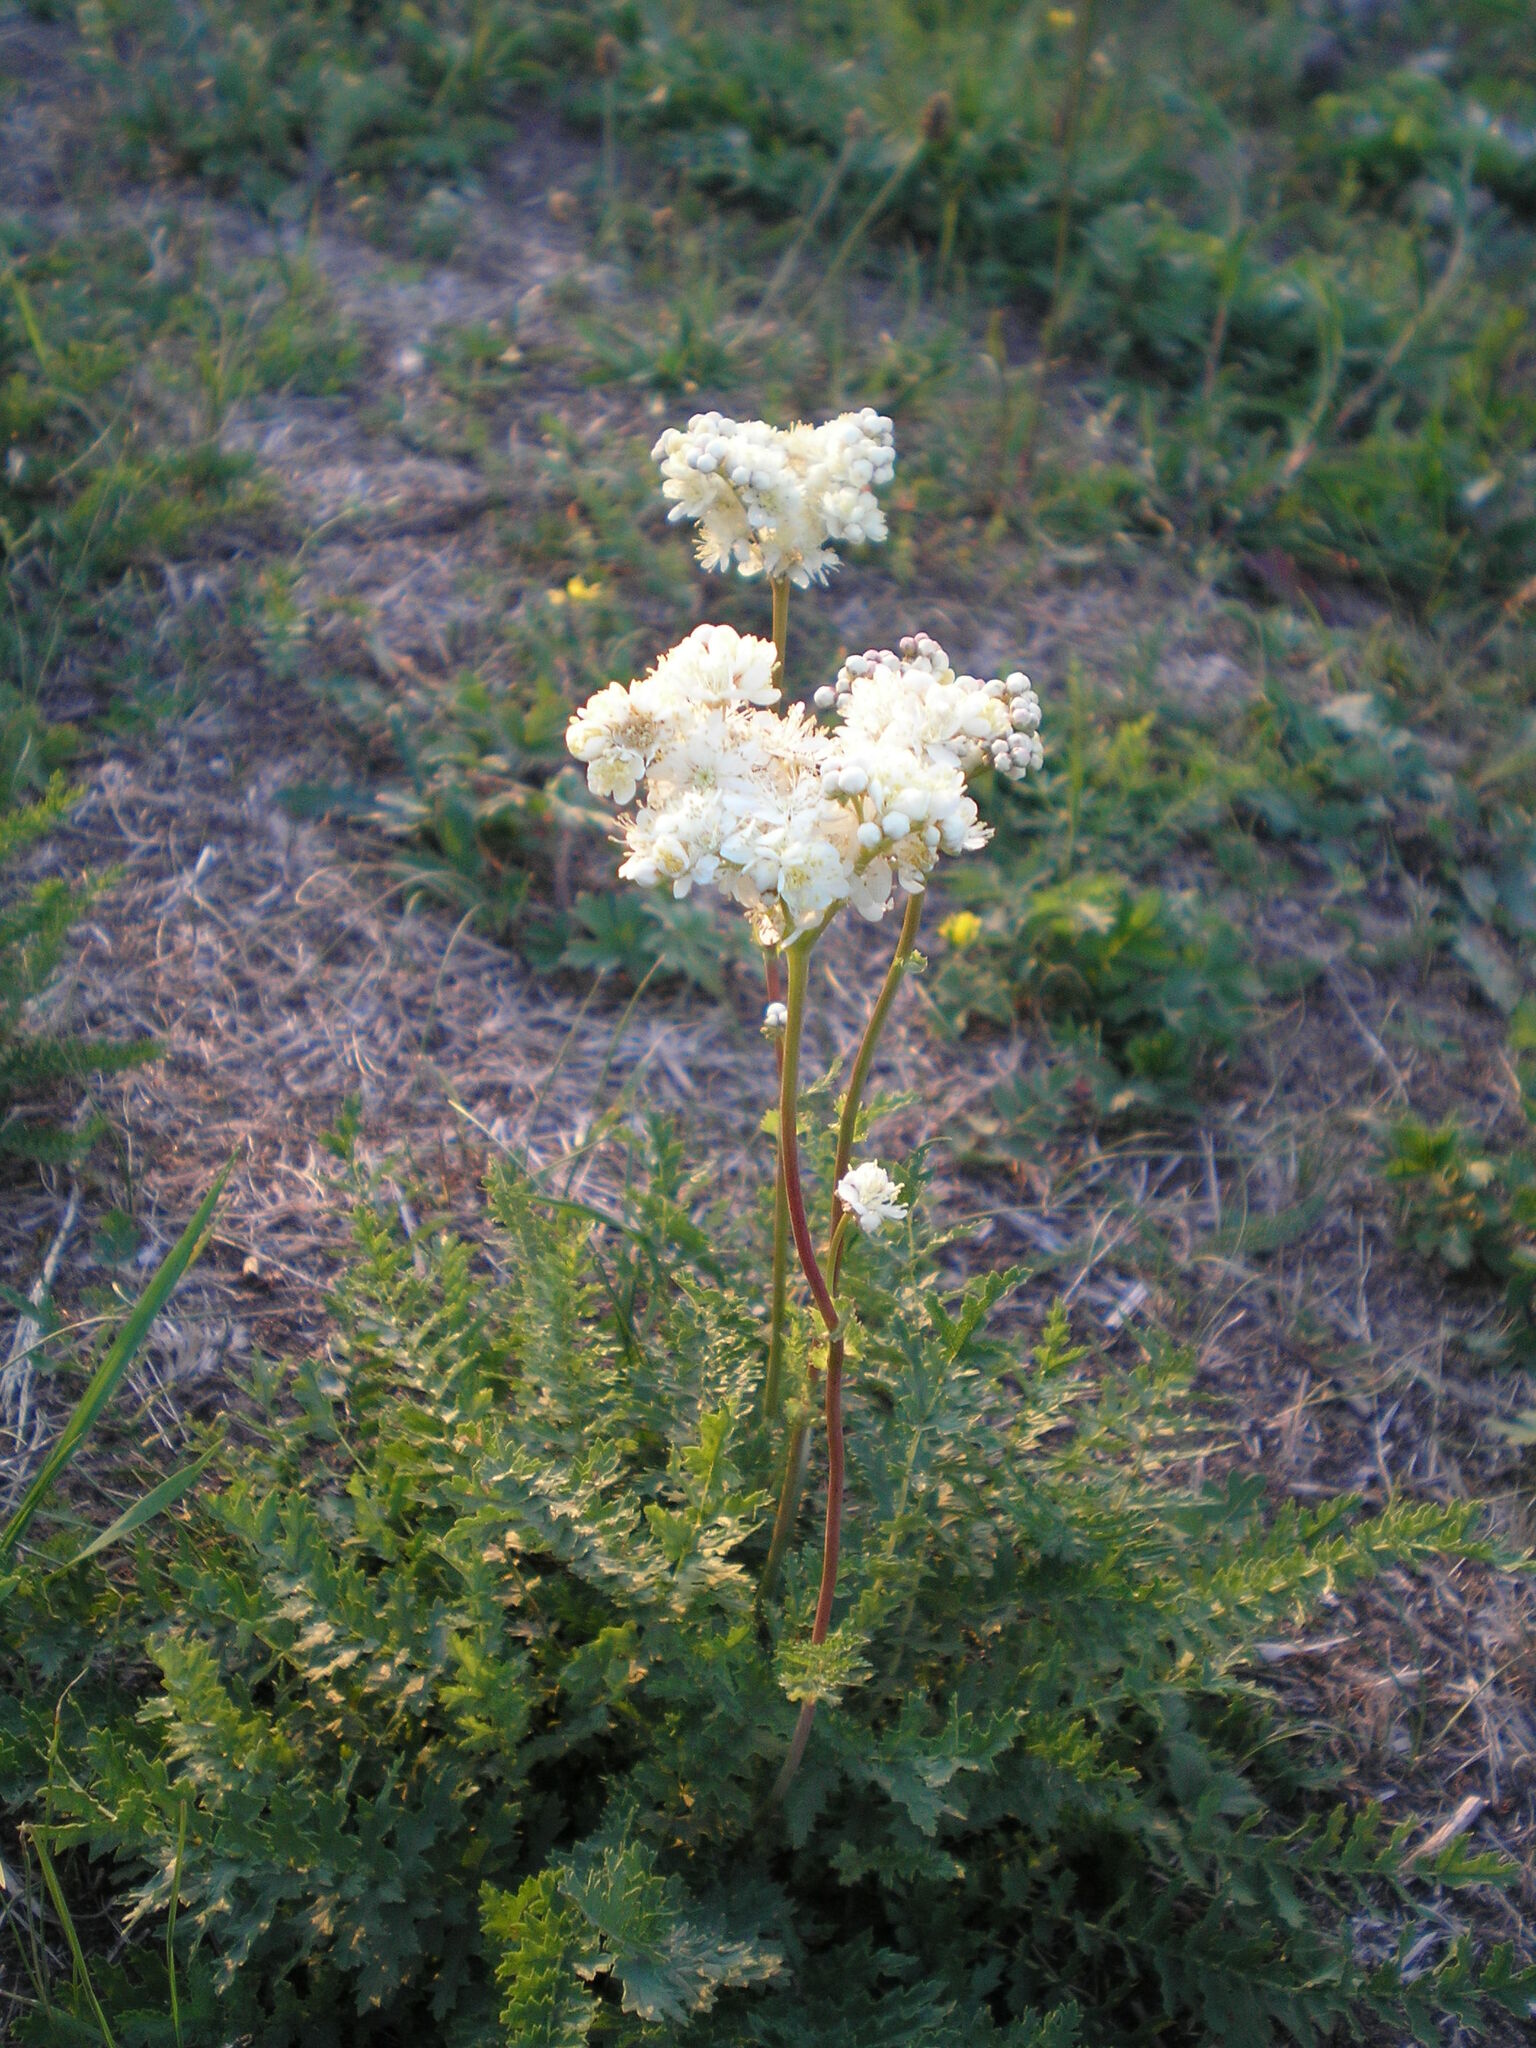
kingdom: Plantae
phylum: Tracheophyta
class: Magnoliopsida
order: Rosales
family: Rosaceae
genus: Filipendula
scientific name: Filipendula vulgaris
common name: Dropwort
